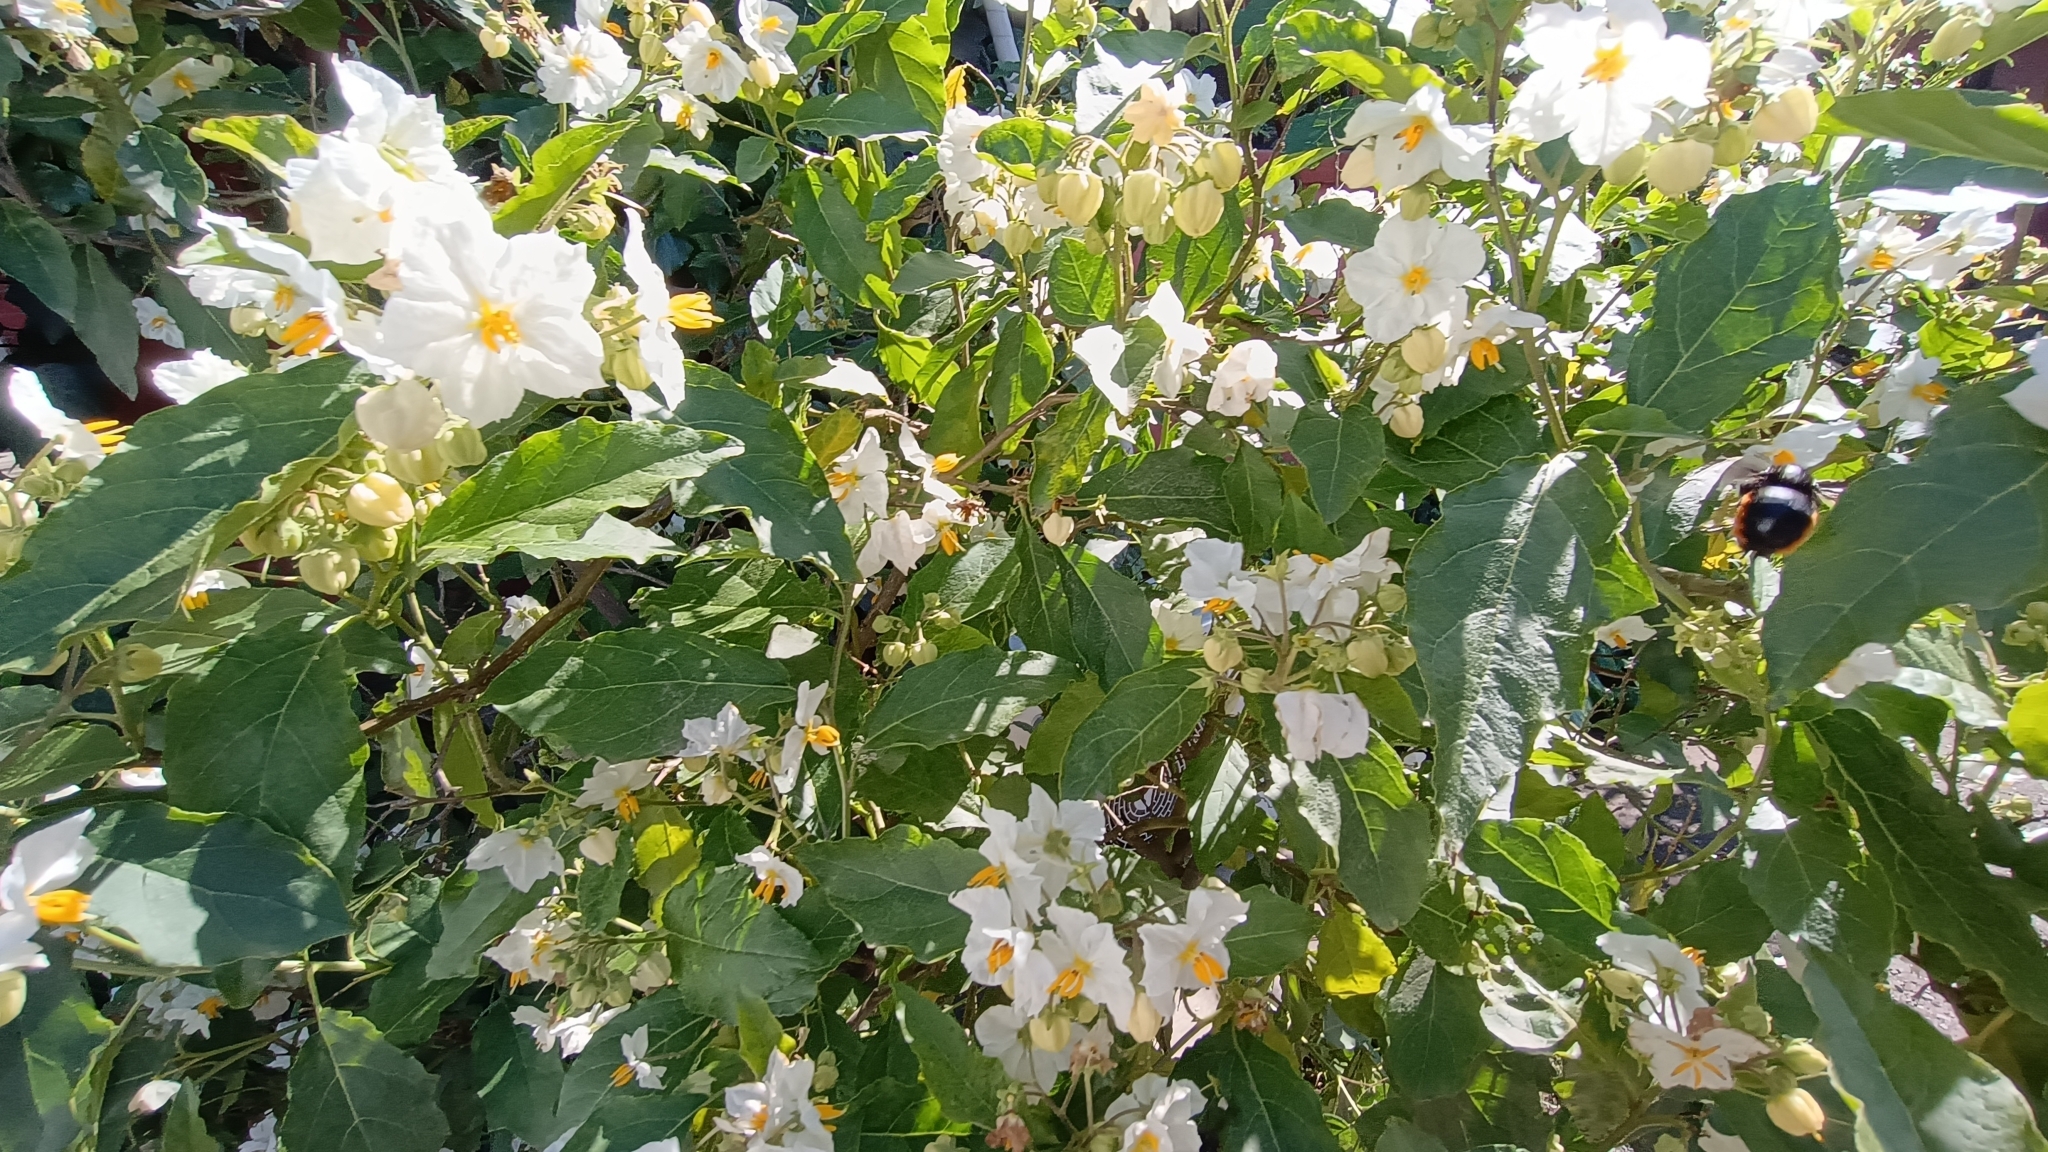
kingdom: Animalia
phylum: Arthropoda
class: Insecta
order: Hymenoptera
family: Apidae
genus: Xylocopa
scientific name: Xylocopa augusti
